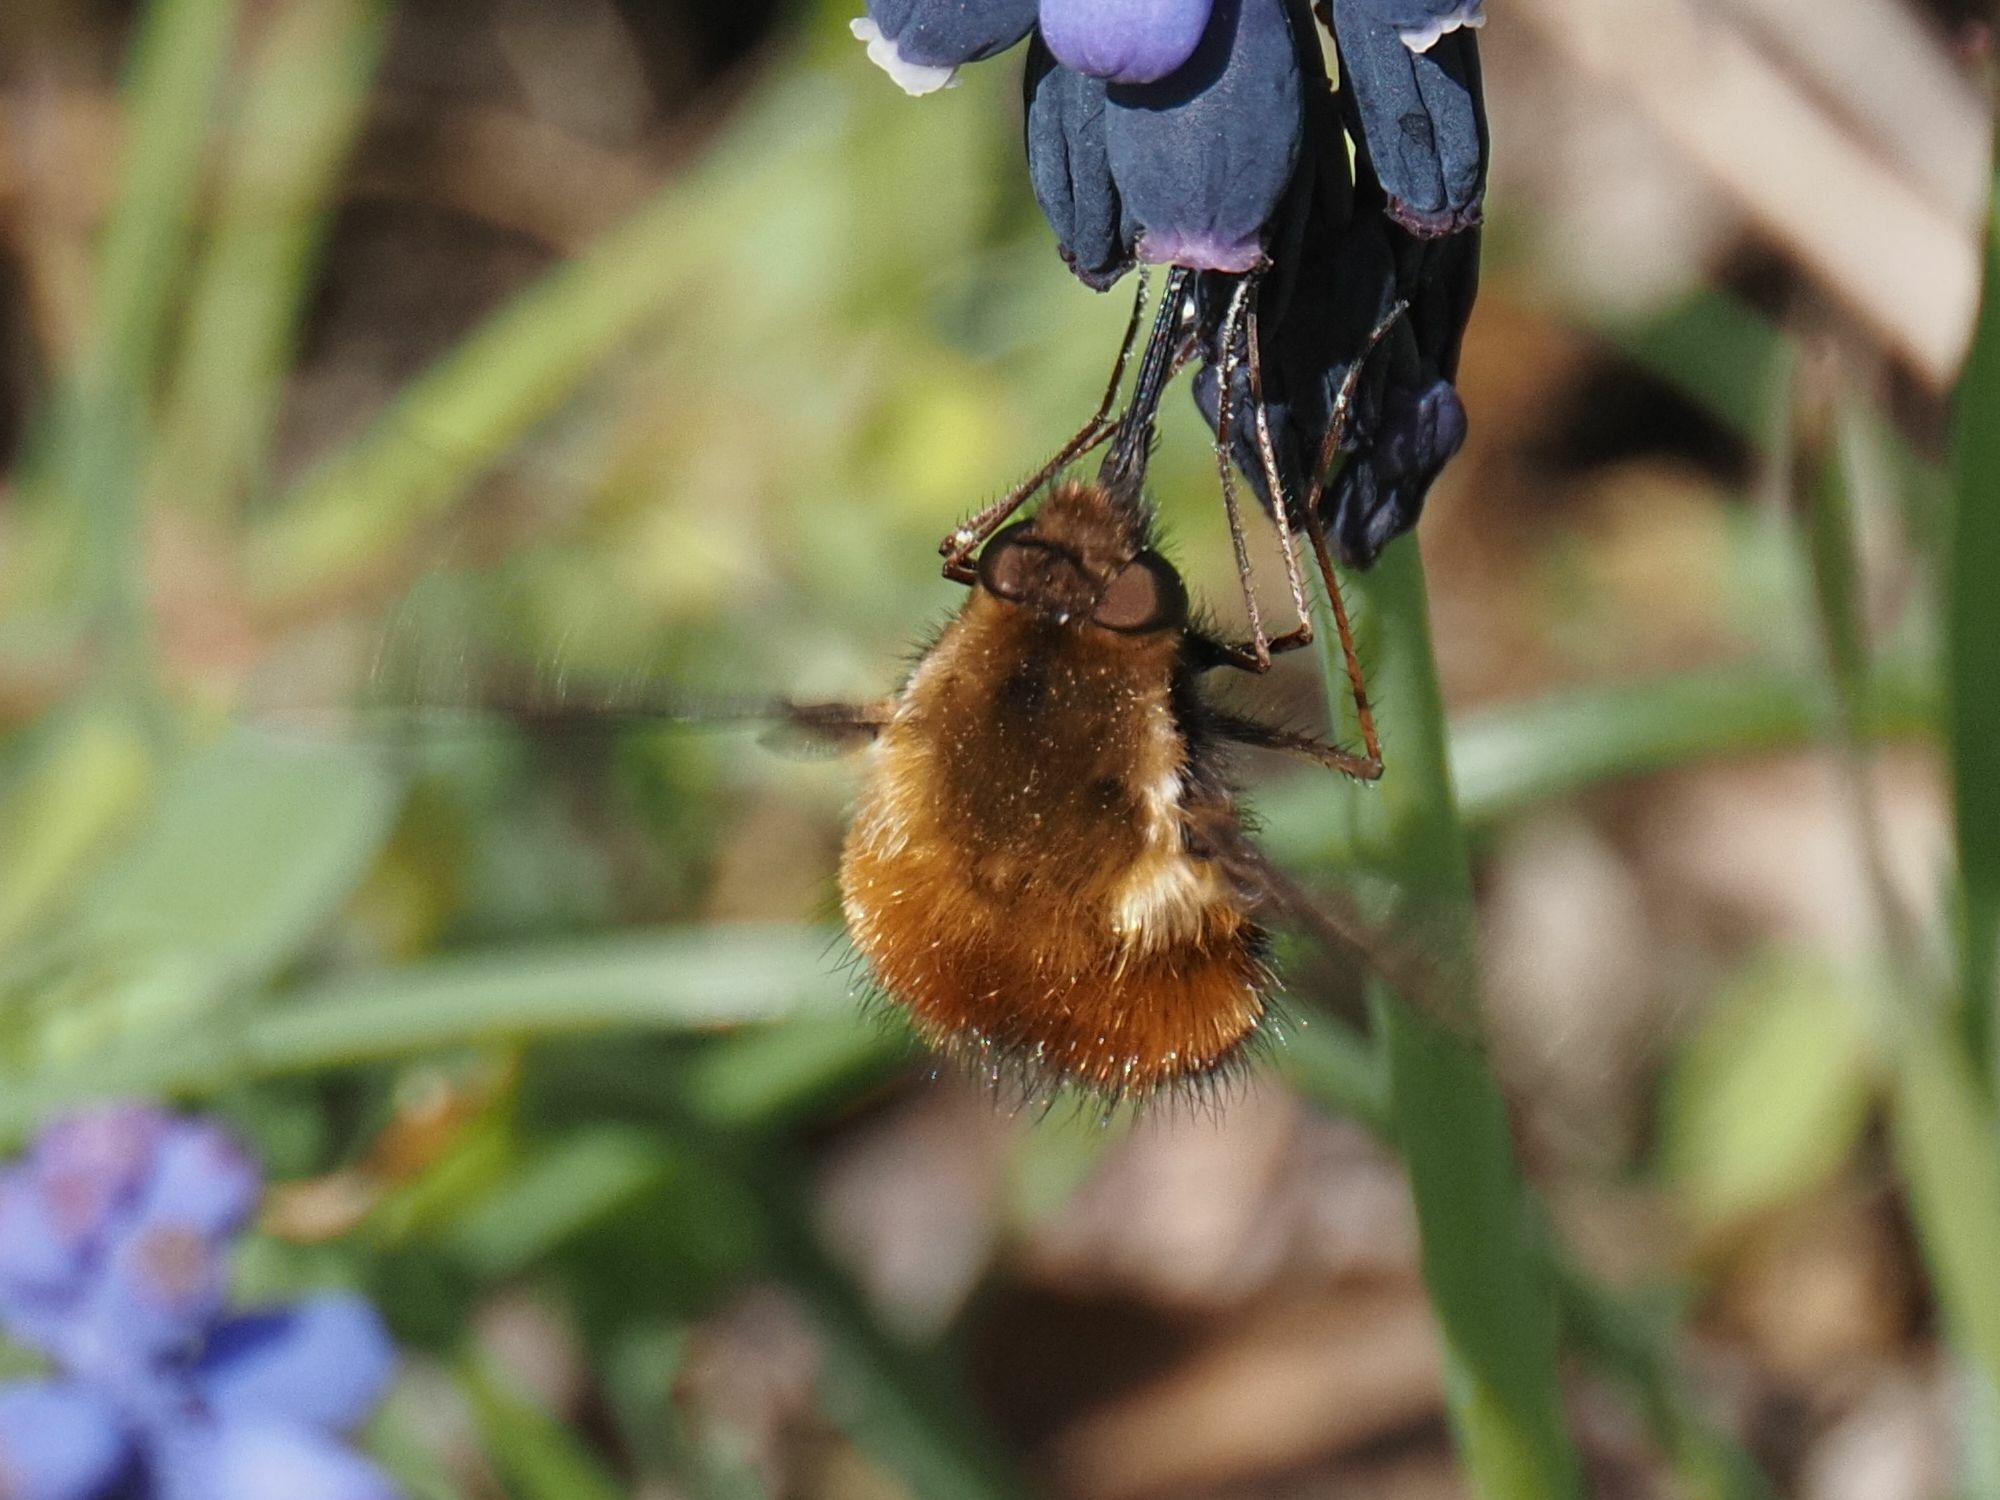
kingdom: Animalia
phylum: Arthropoda
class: Insecta
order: Diptera
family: Bombyliidae
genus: Bombylius
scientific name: Bombylius discolor
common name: Dotted bee-fly
